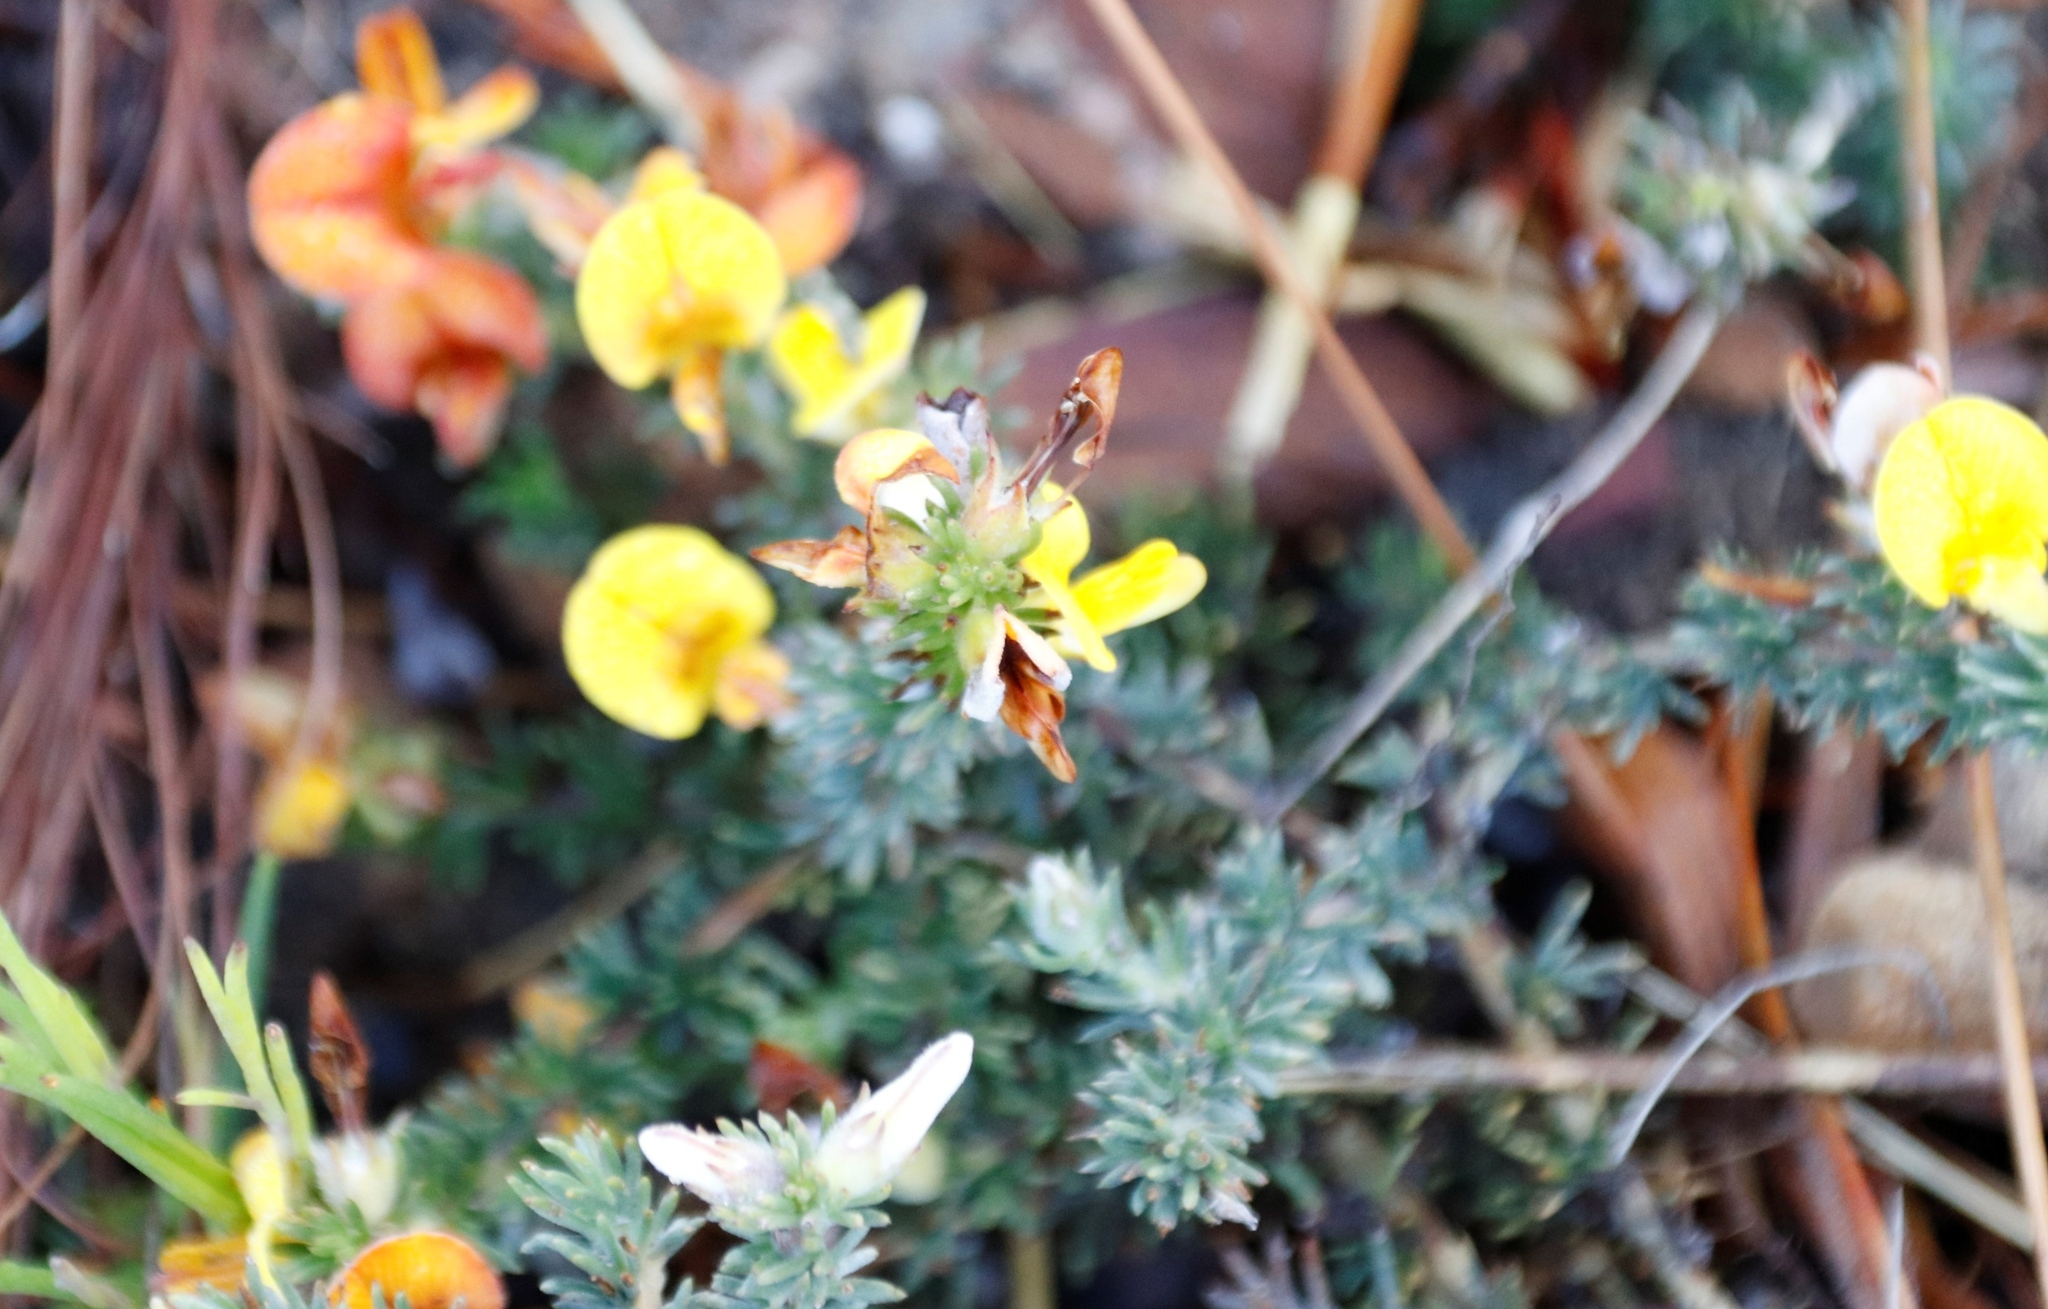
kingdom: Plantae
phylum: Tracheophyta
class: Magnoliopsida
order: Fabales
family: Fabaceae
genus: Aspalathus
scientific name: Aspalathus ciliaris
